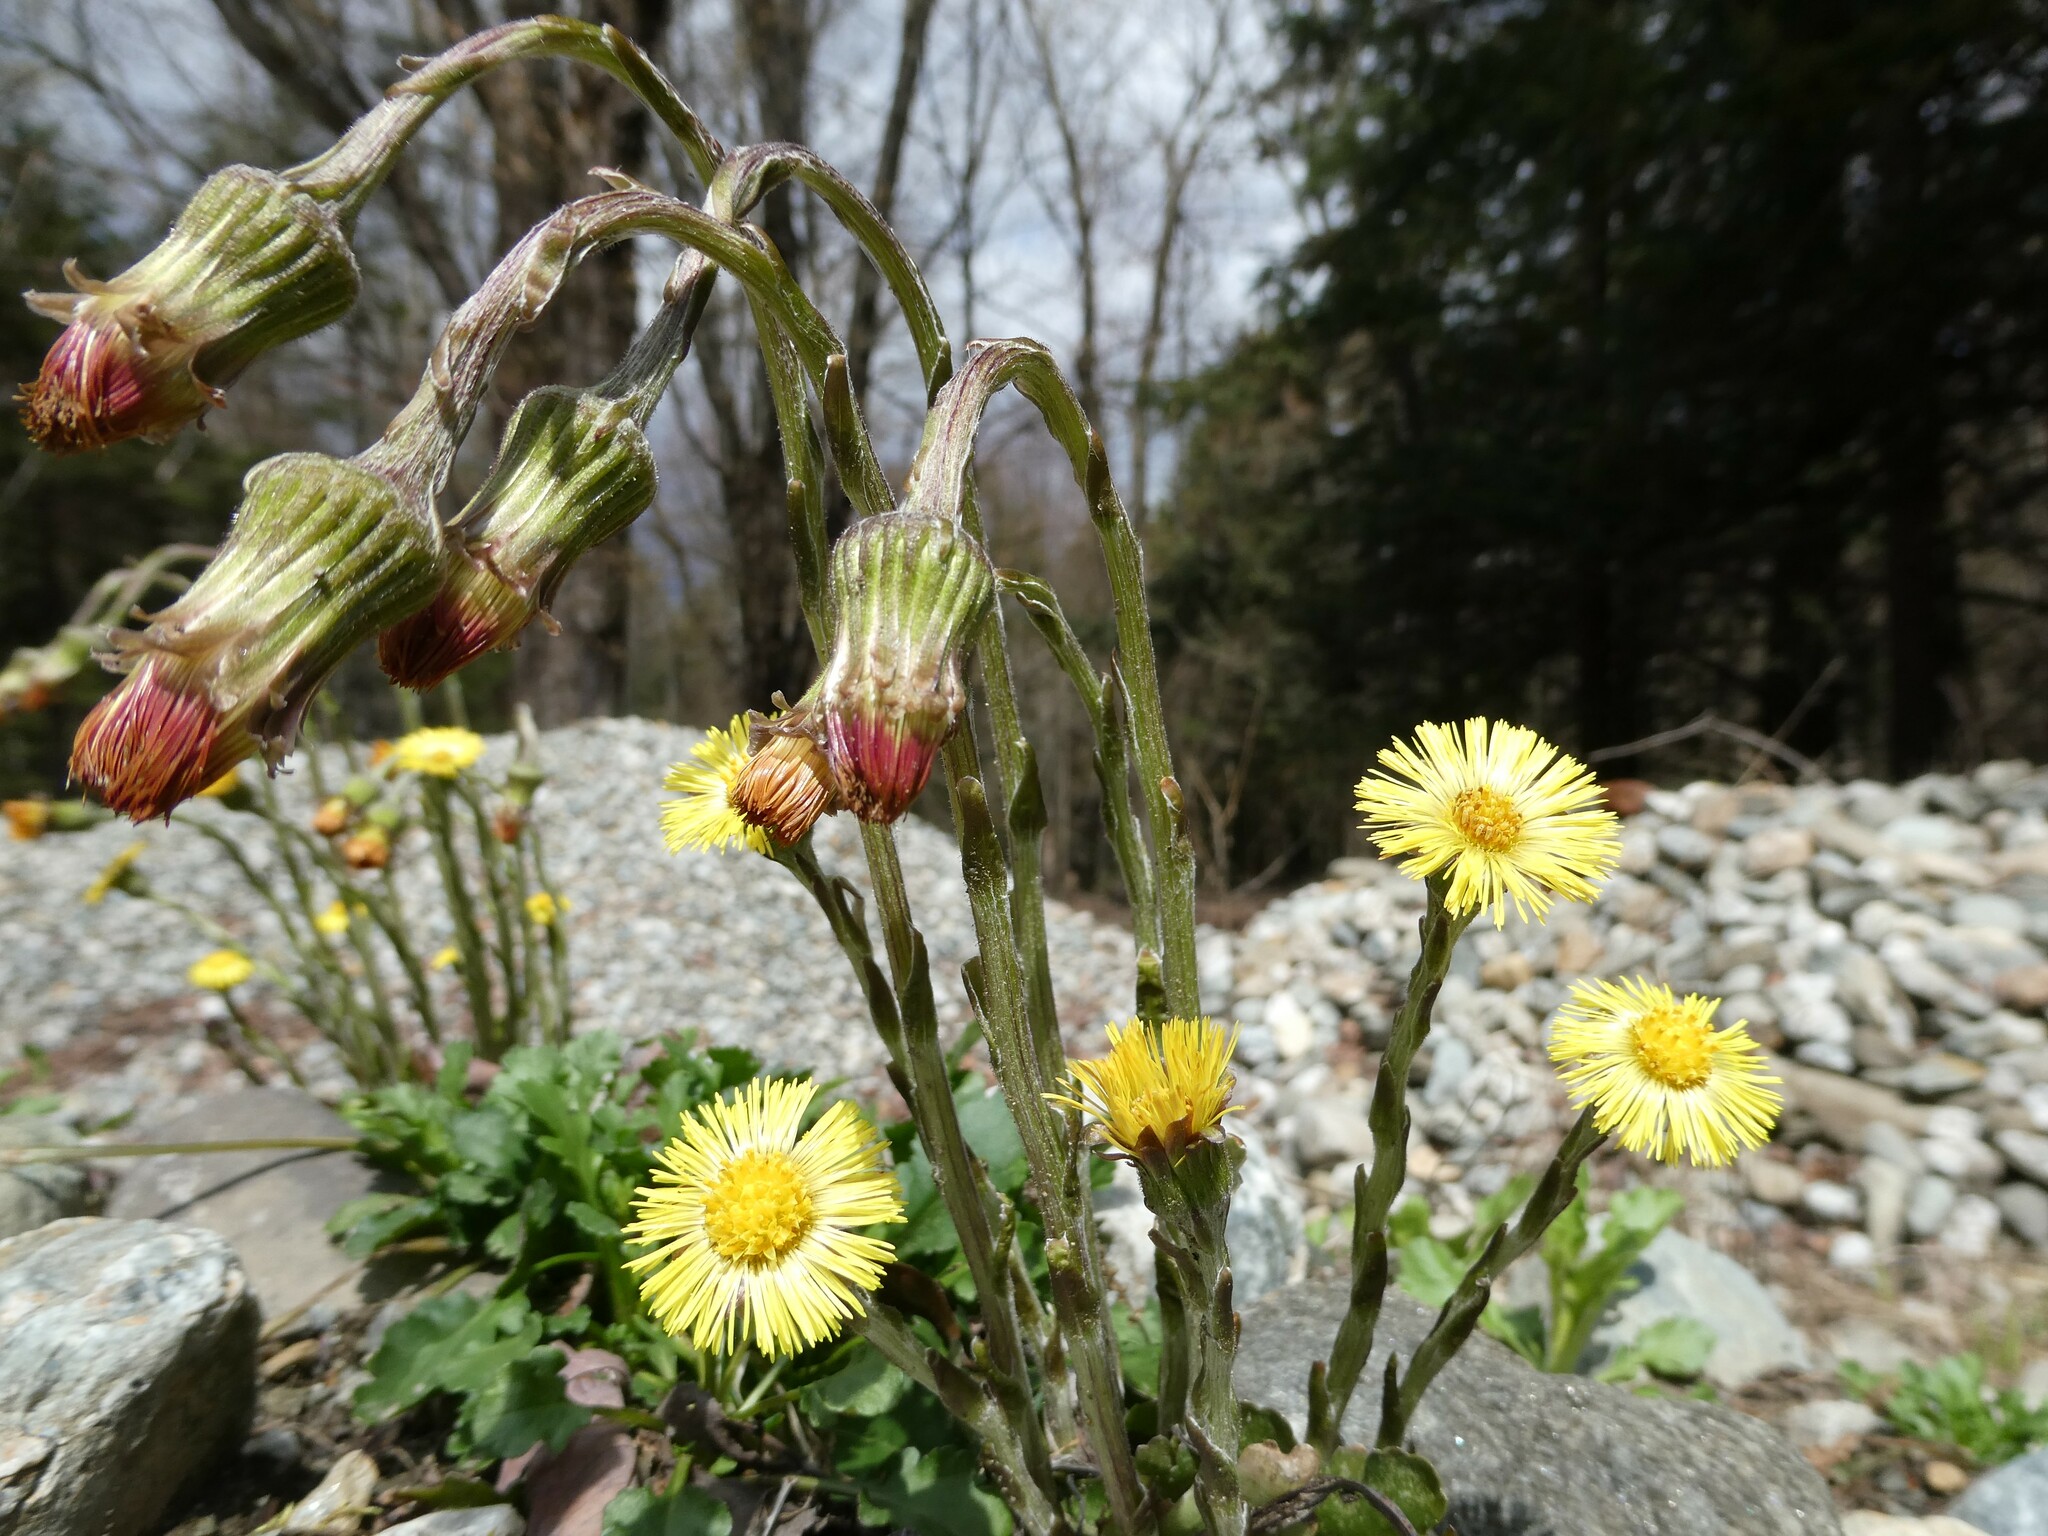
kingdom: Plantae
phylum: Tracheophyta
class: Magnoliopsida
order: Asterales
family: Asteraceae
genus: Tussilago
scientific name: Tussilago farfara
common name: Coltsfoot
